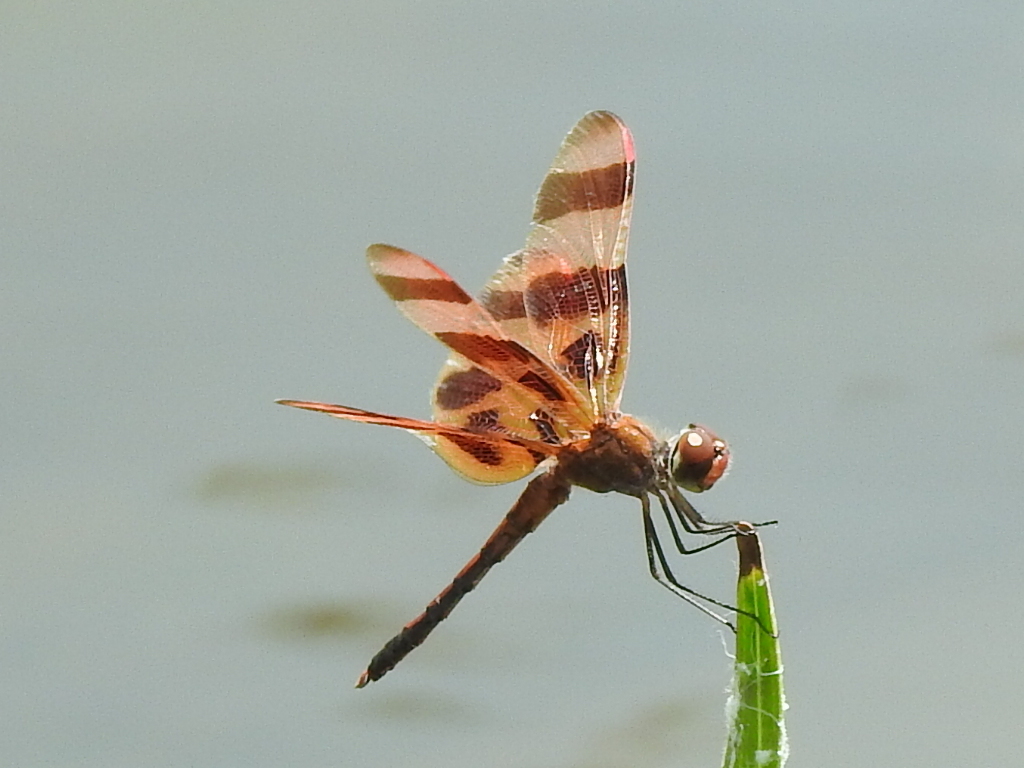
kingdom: Animalia
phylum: Arthropoda
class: Insecta
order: Odonata
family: Libellulidae
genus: Celithemis
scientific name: Celithemis eponina
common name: Halloween pennant
